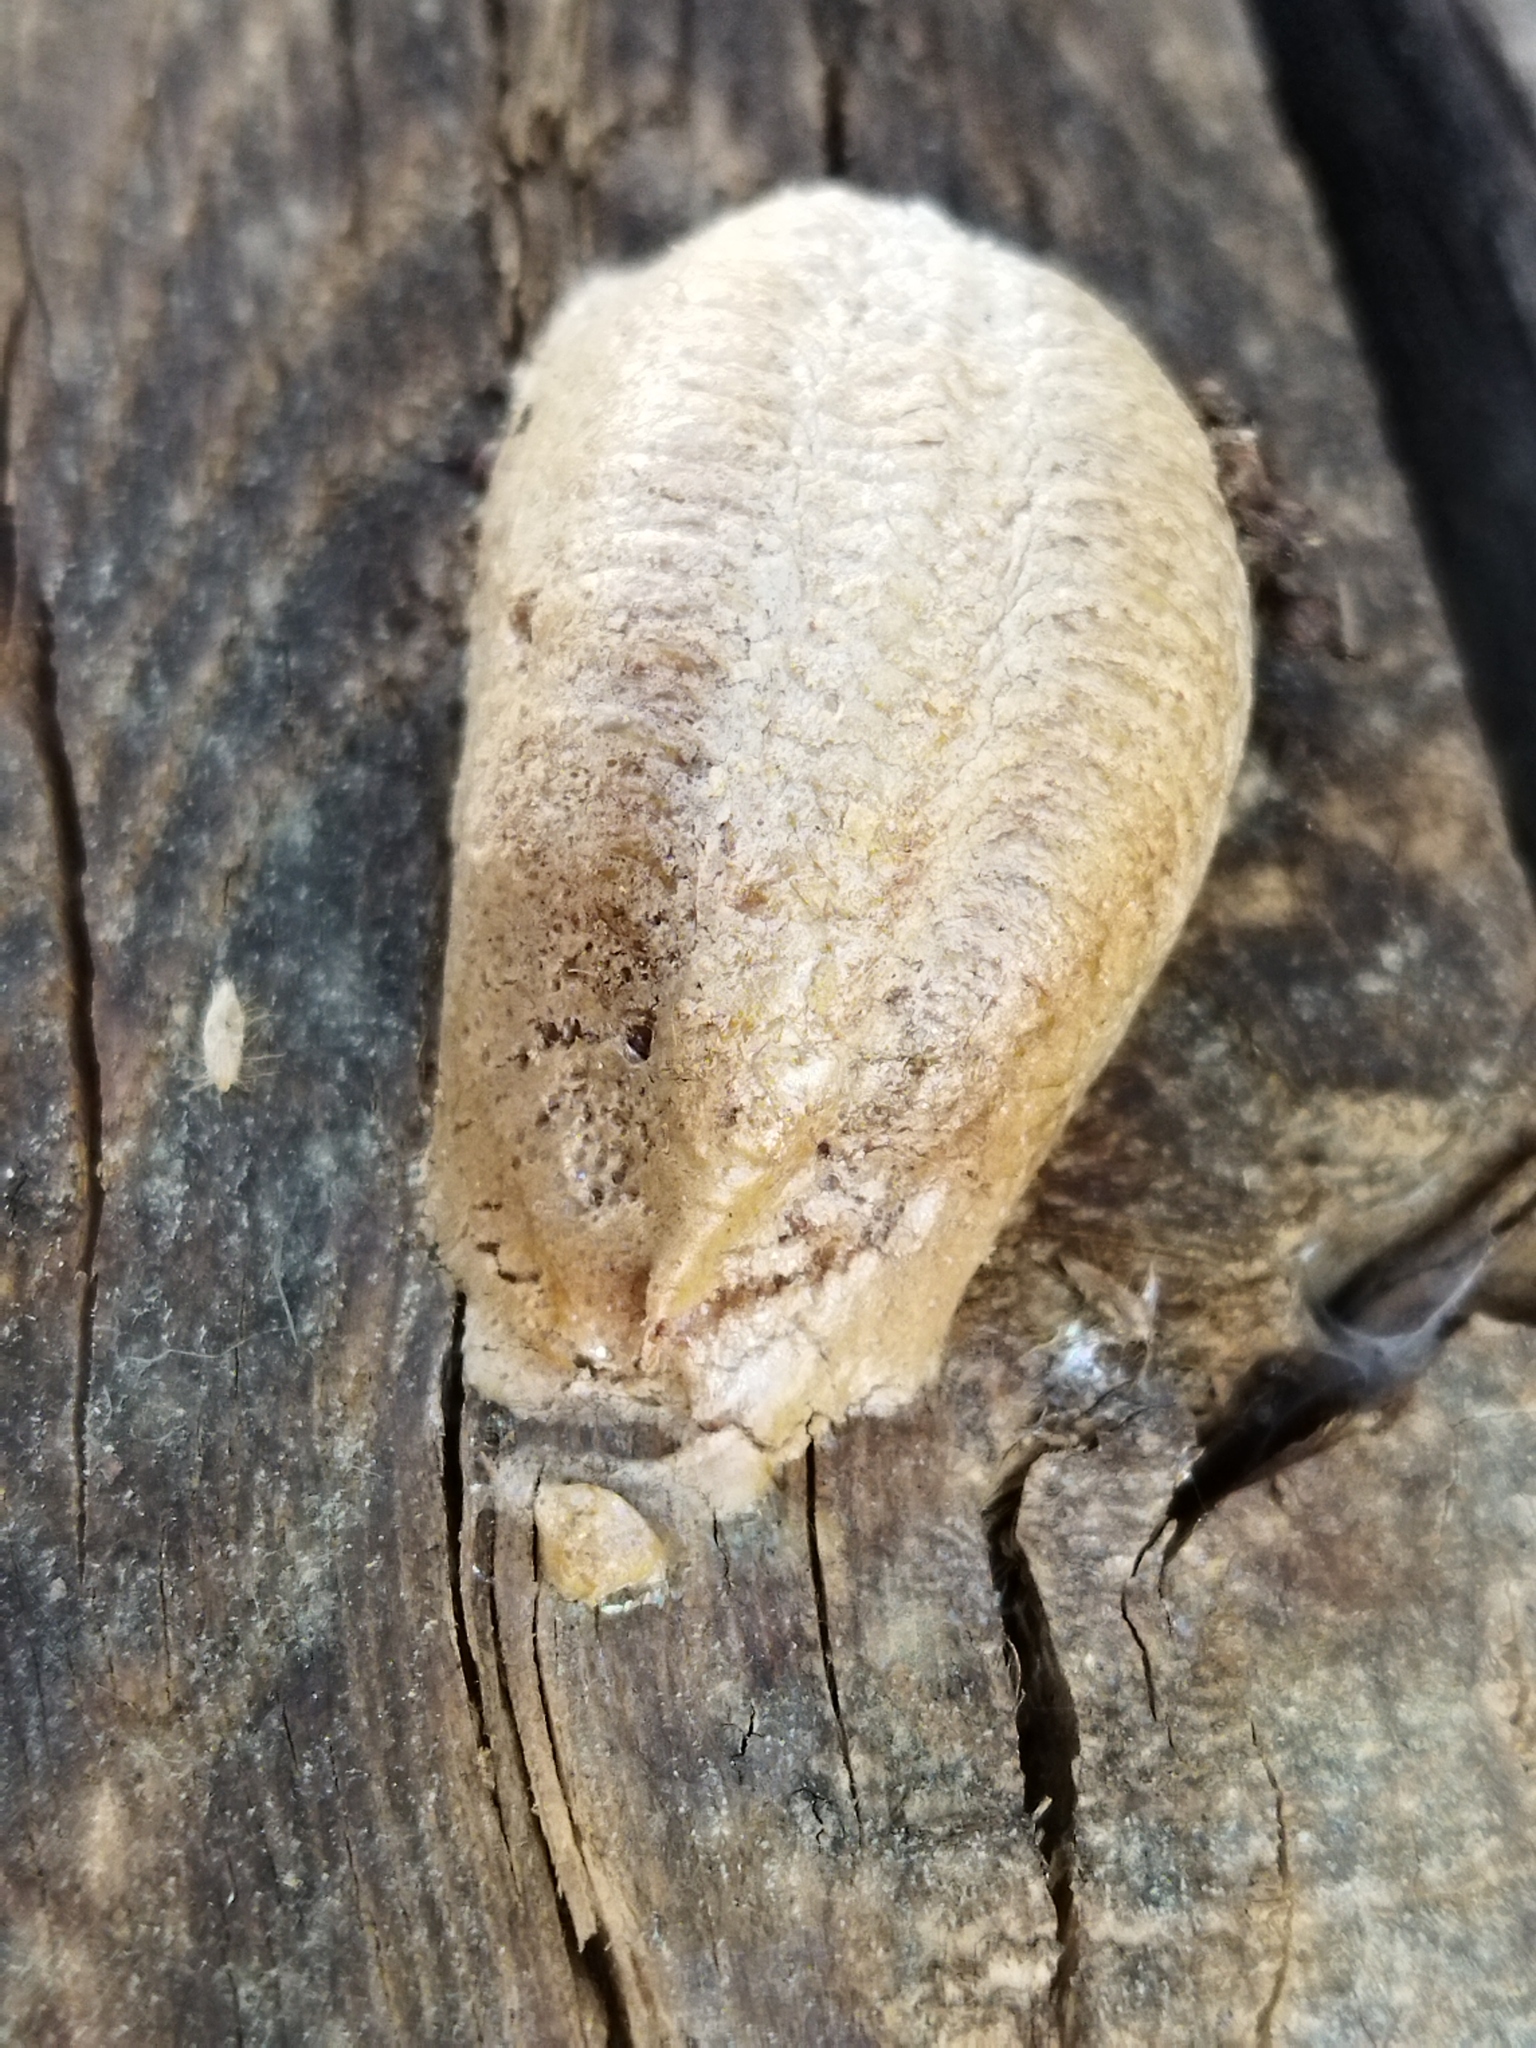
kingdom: Animalia
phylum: Arthropoda
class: Insecta
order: Mantodea
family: Mantidae
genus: Mantis
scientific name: Mantis religiosa
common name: Praying mantis
